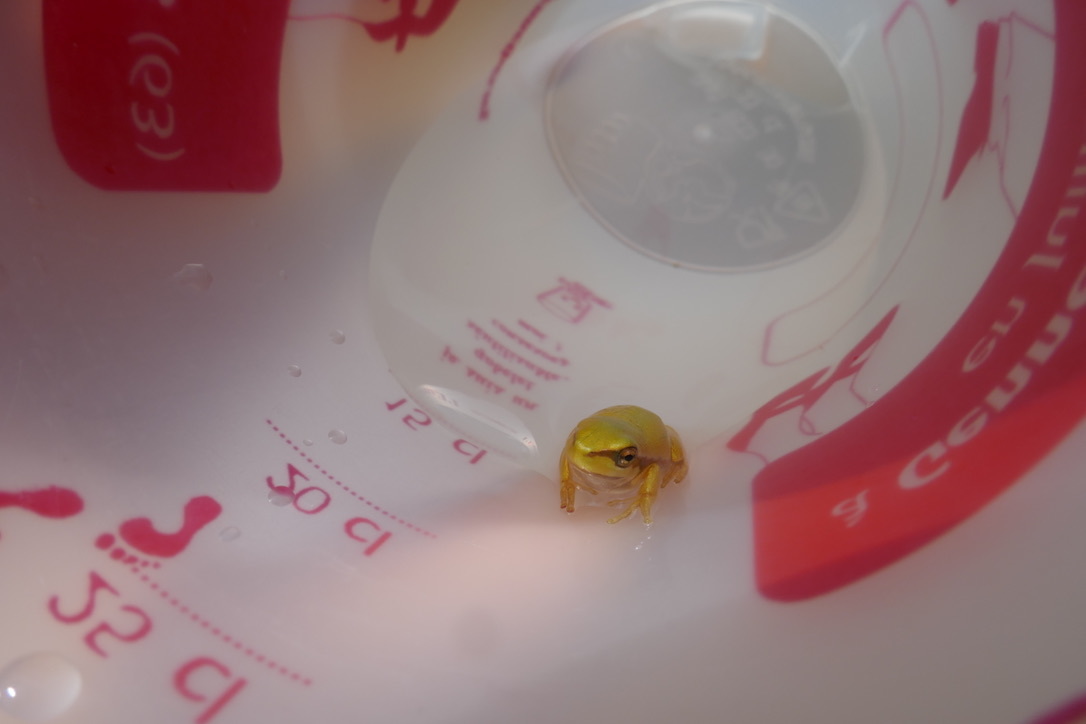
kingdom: Animalia
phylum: Chordata
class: Amphibia
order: Anura
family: Hylidae
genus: Hyla
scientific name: Hyla arborea
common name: Common tree frog
